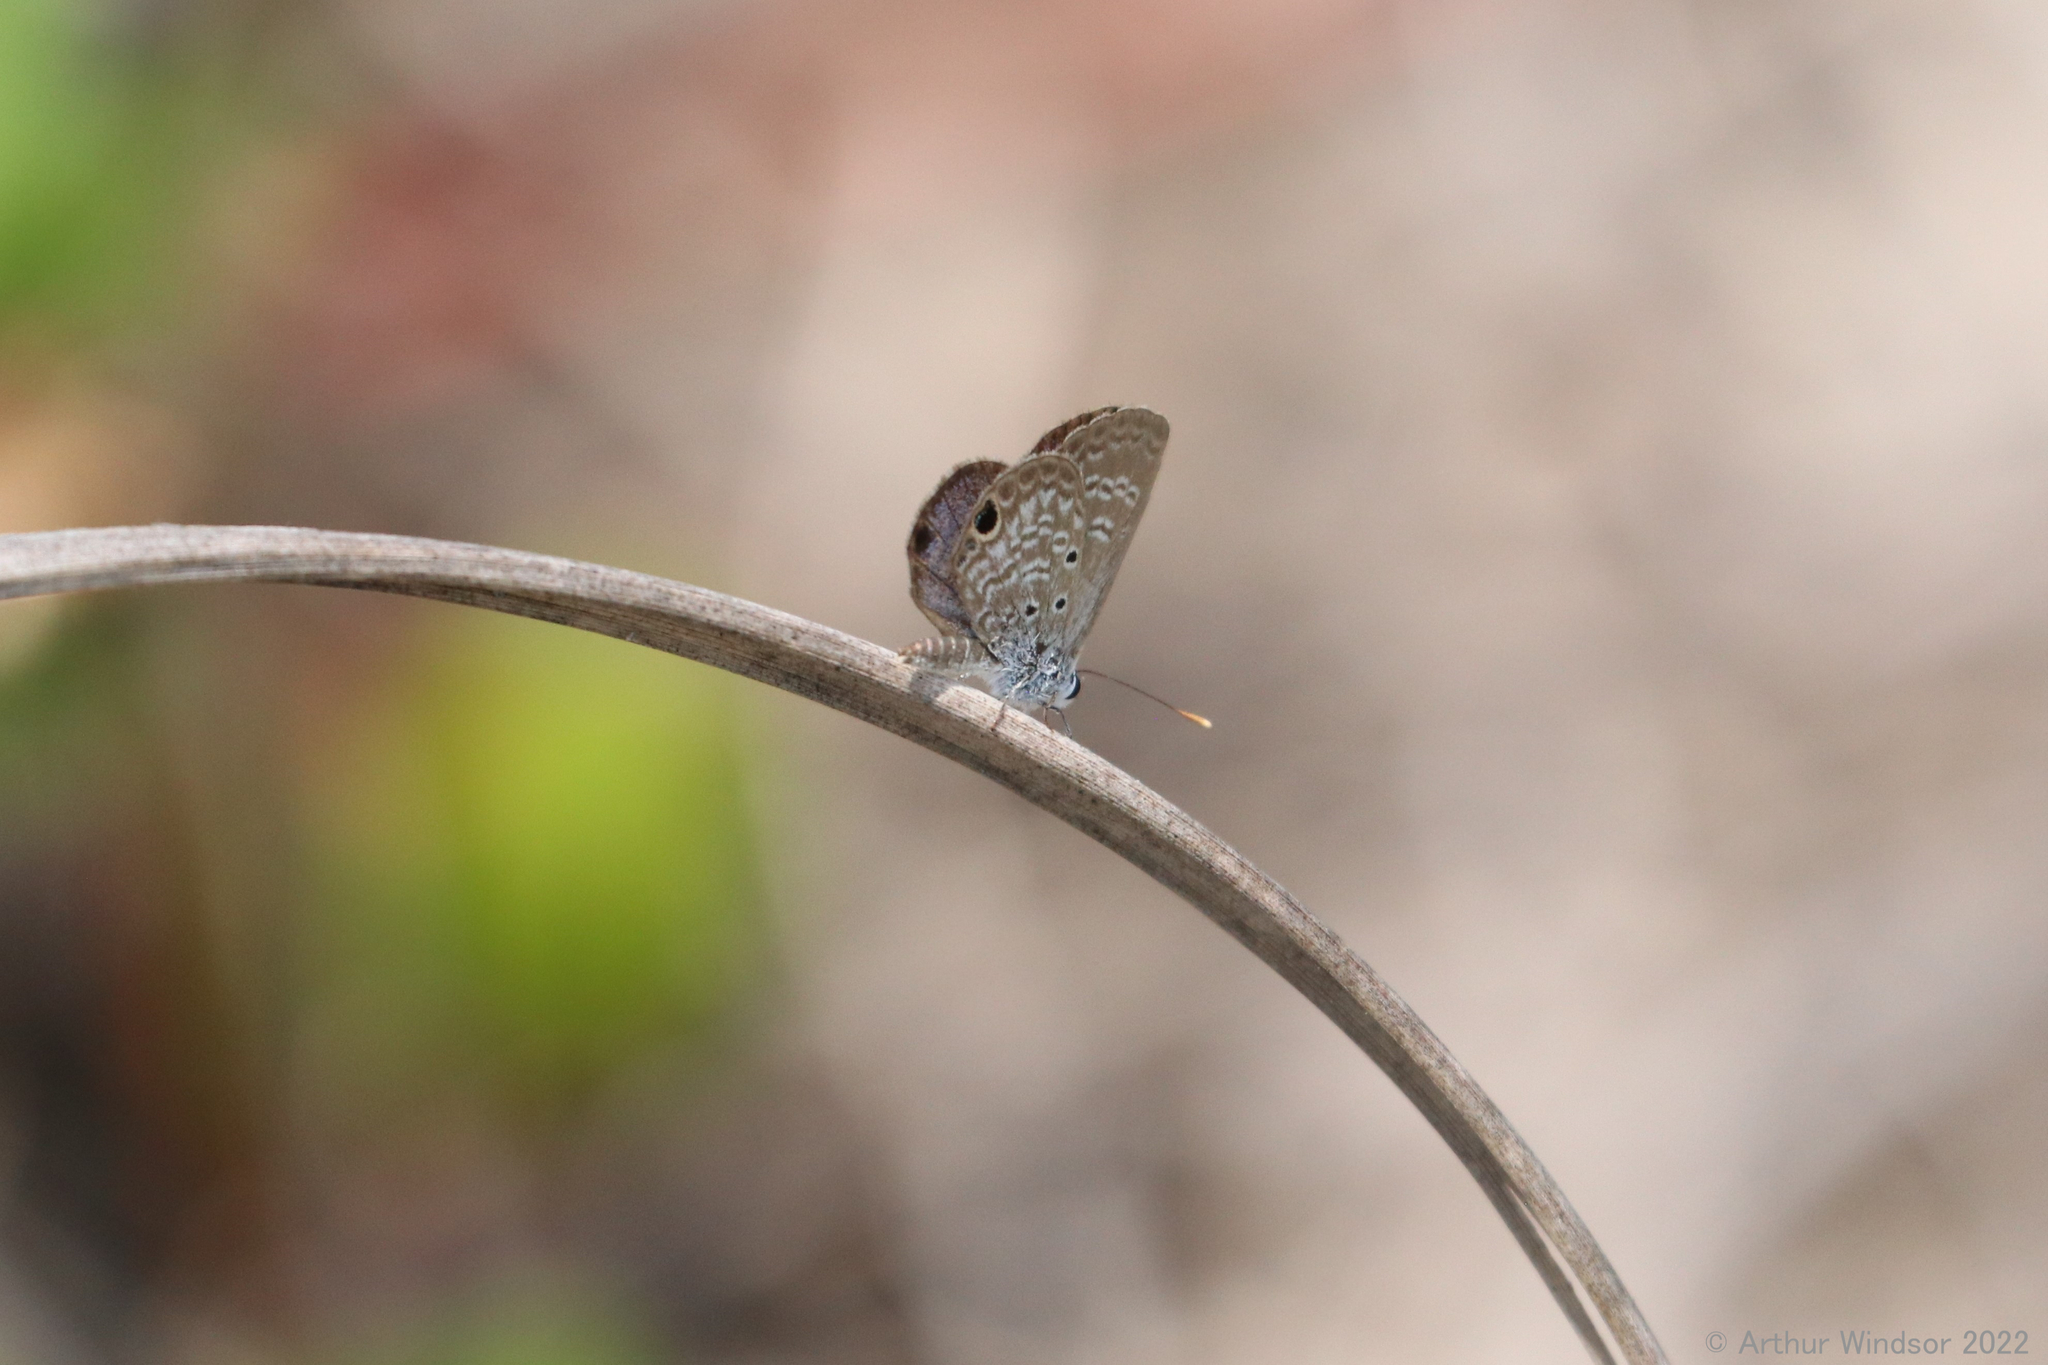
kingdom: Animalia
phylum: Arthropoda
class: Insecta
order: Lepidoptera
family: Lycaenidae
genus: Hemiargus
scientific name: Hemiargus ceraunus
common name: Ceraunus blue
